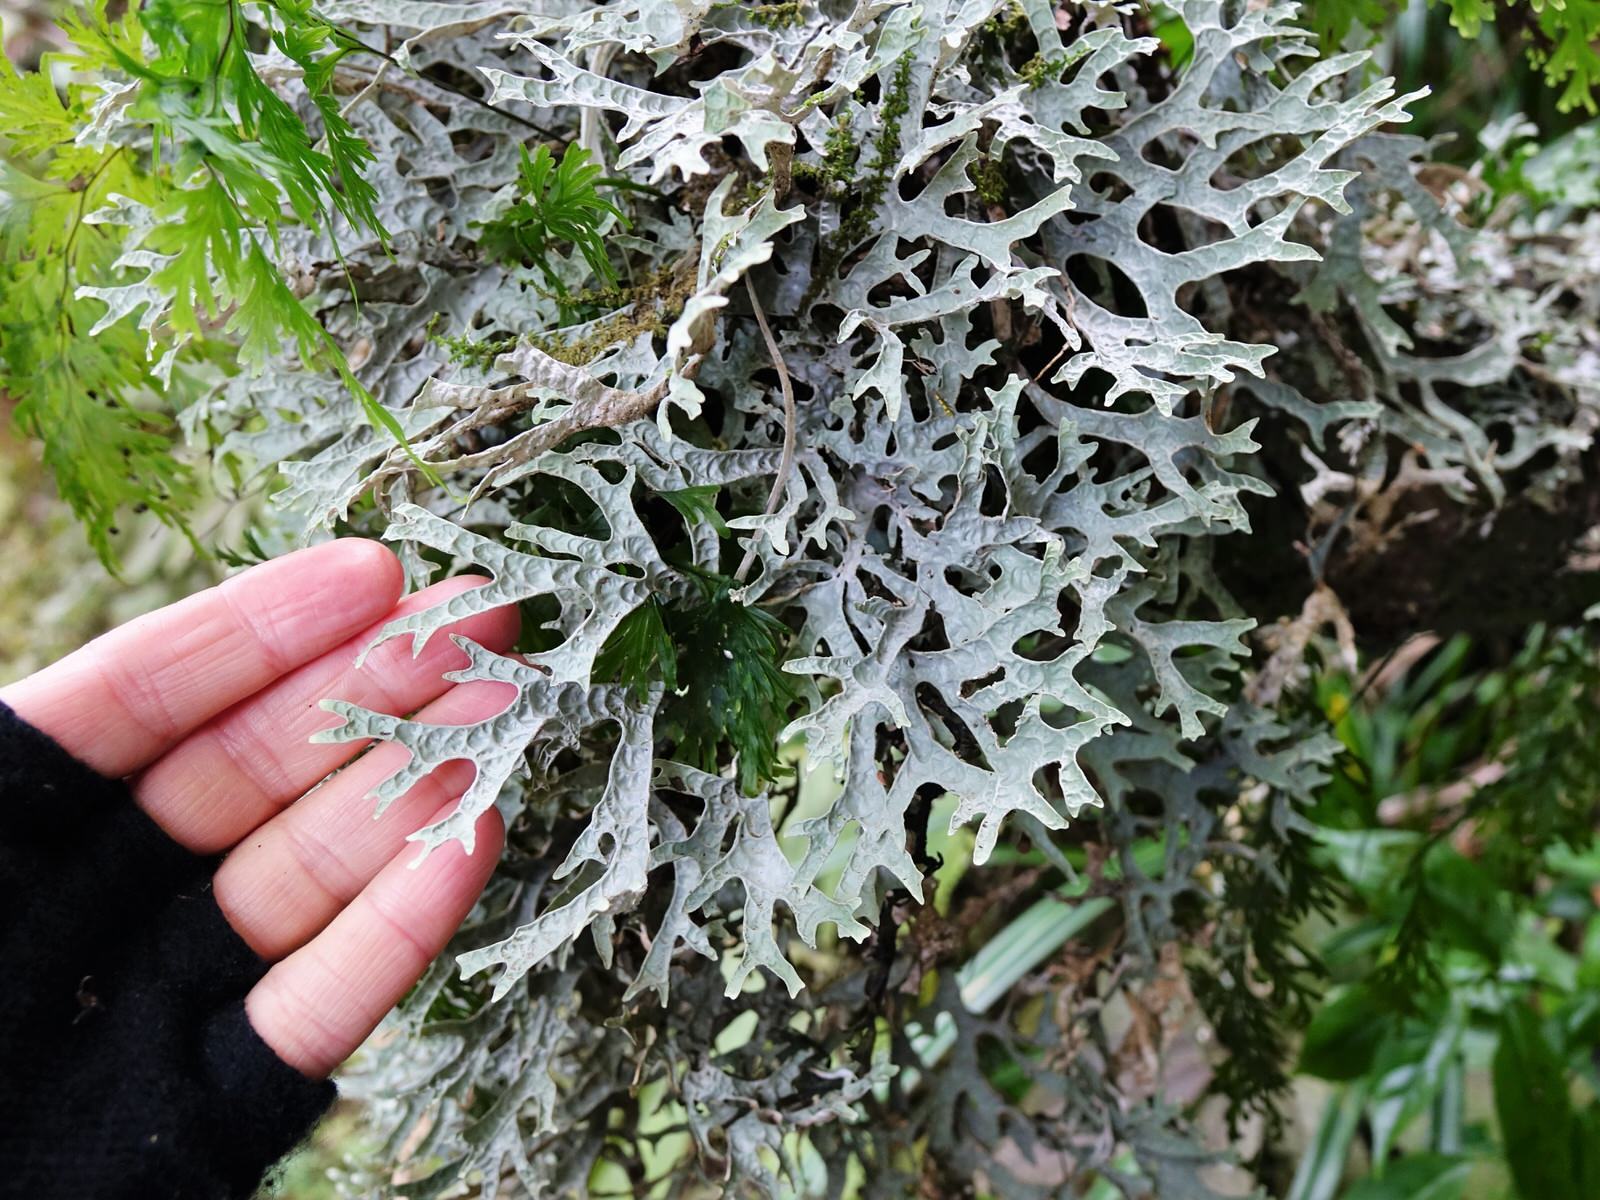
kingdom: Fungi
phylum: Ascomycota
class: Lecanoromycetes
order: Peltigerales
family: Lobariaceae
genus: Pseudocyphellaria
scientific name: Pseudocyphellaria rufovirescens
